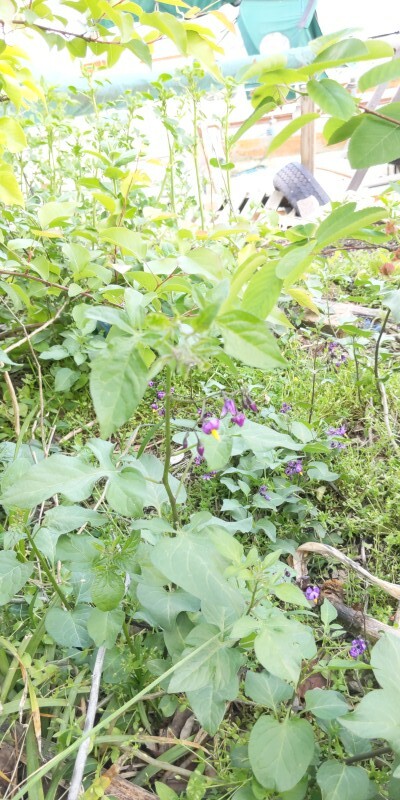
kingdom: Plantae
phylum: Tracheophyta
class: Magnoliopsida
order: Solanales
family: Solanaceae
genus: Solanum
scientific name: Solanum dulcamara
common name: Climbing nightshade
